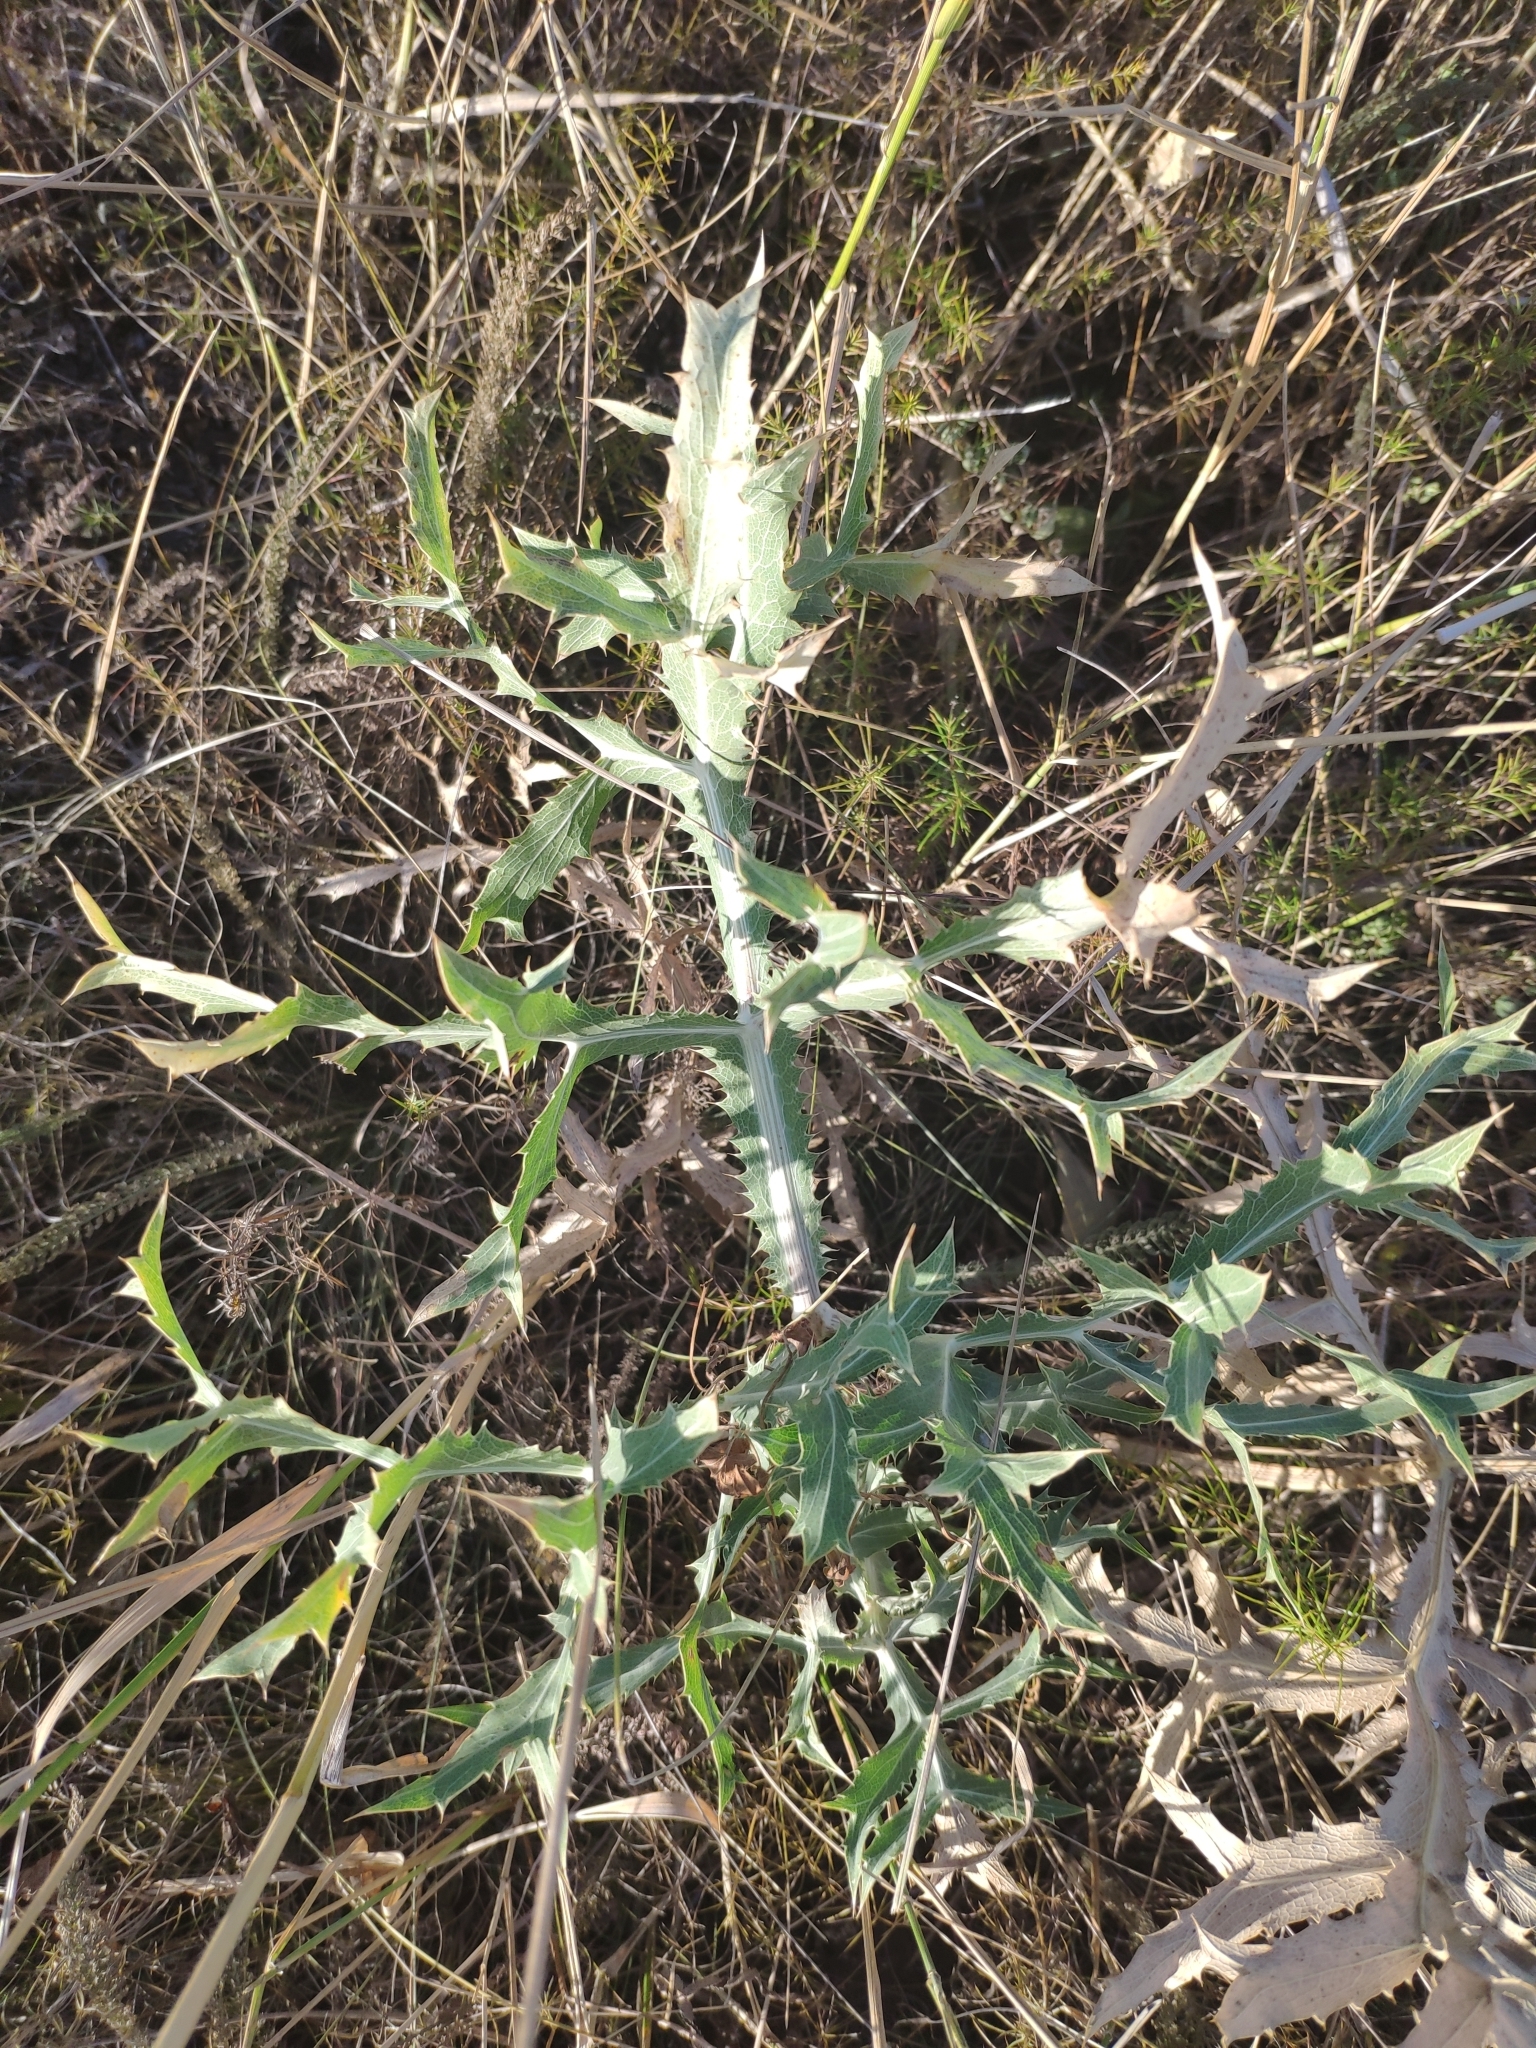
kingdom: Plantae
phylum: Tracheophyta
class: Magnoliopsida
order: Apiales
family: Apiaceae
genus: Eryngium
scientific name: Eryngium campestre
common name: Field eryngo
